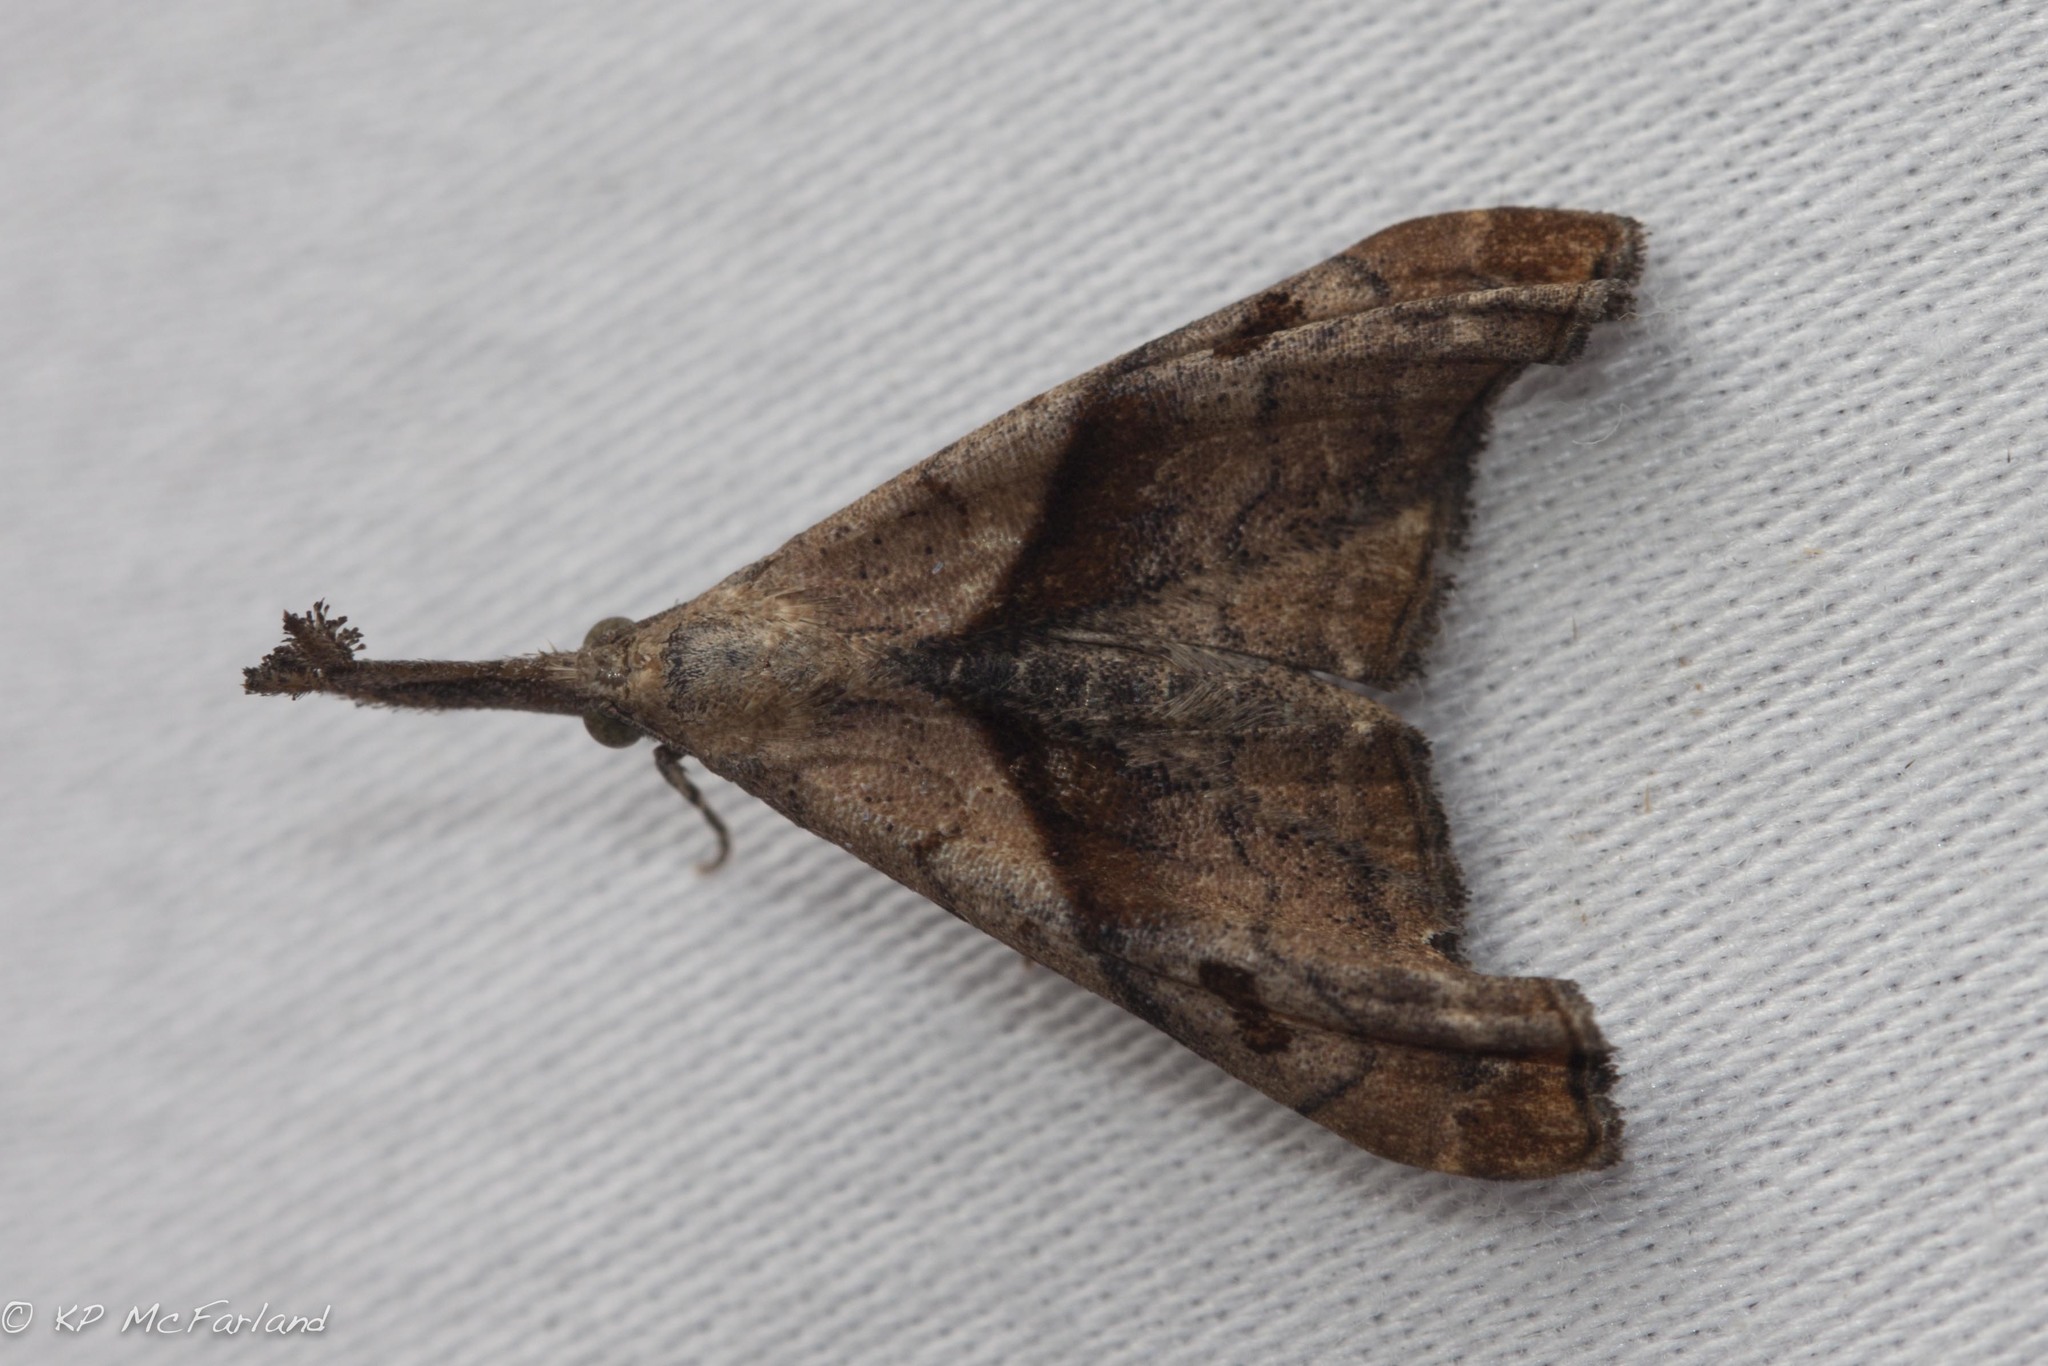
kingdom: Animalia
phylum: Arthropoda
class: Insecta
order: Lepidoptera
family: Erebidae
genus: Palthis
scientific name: Palthis angulalis
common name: Dark-spotted palthis moth
